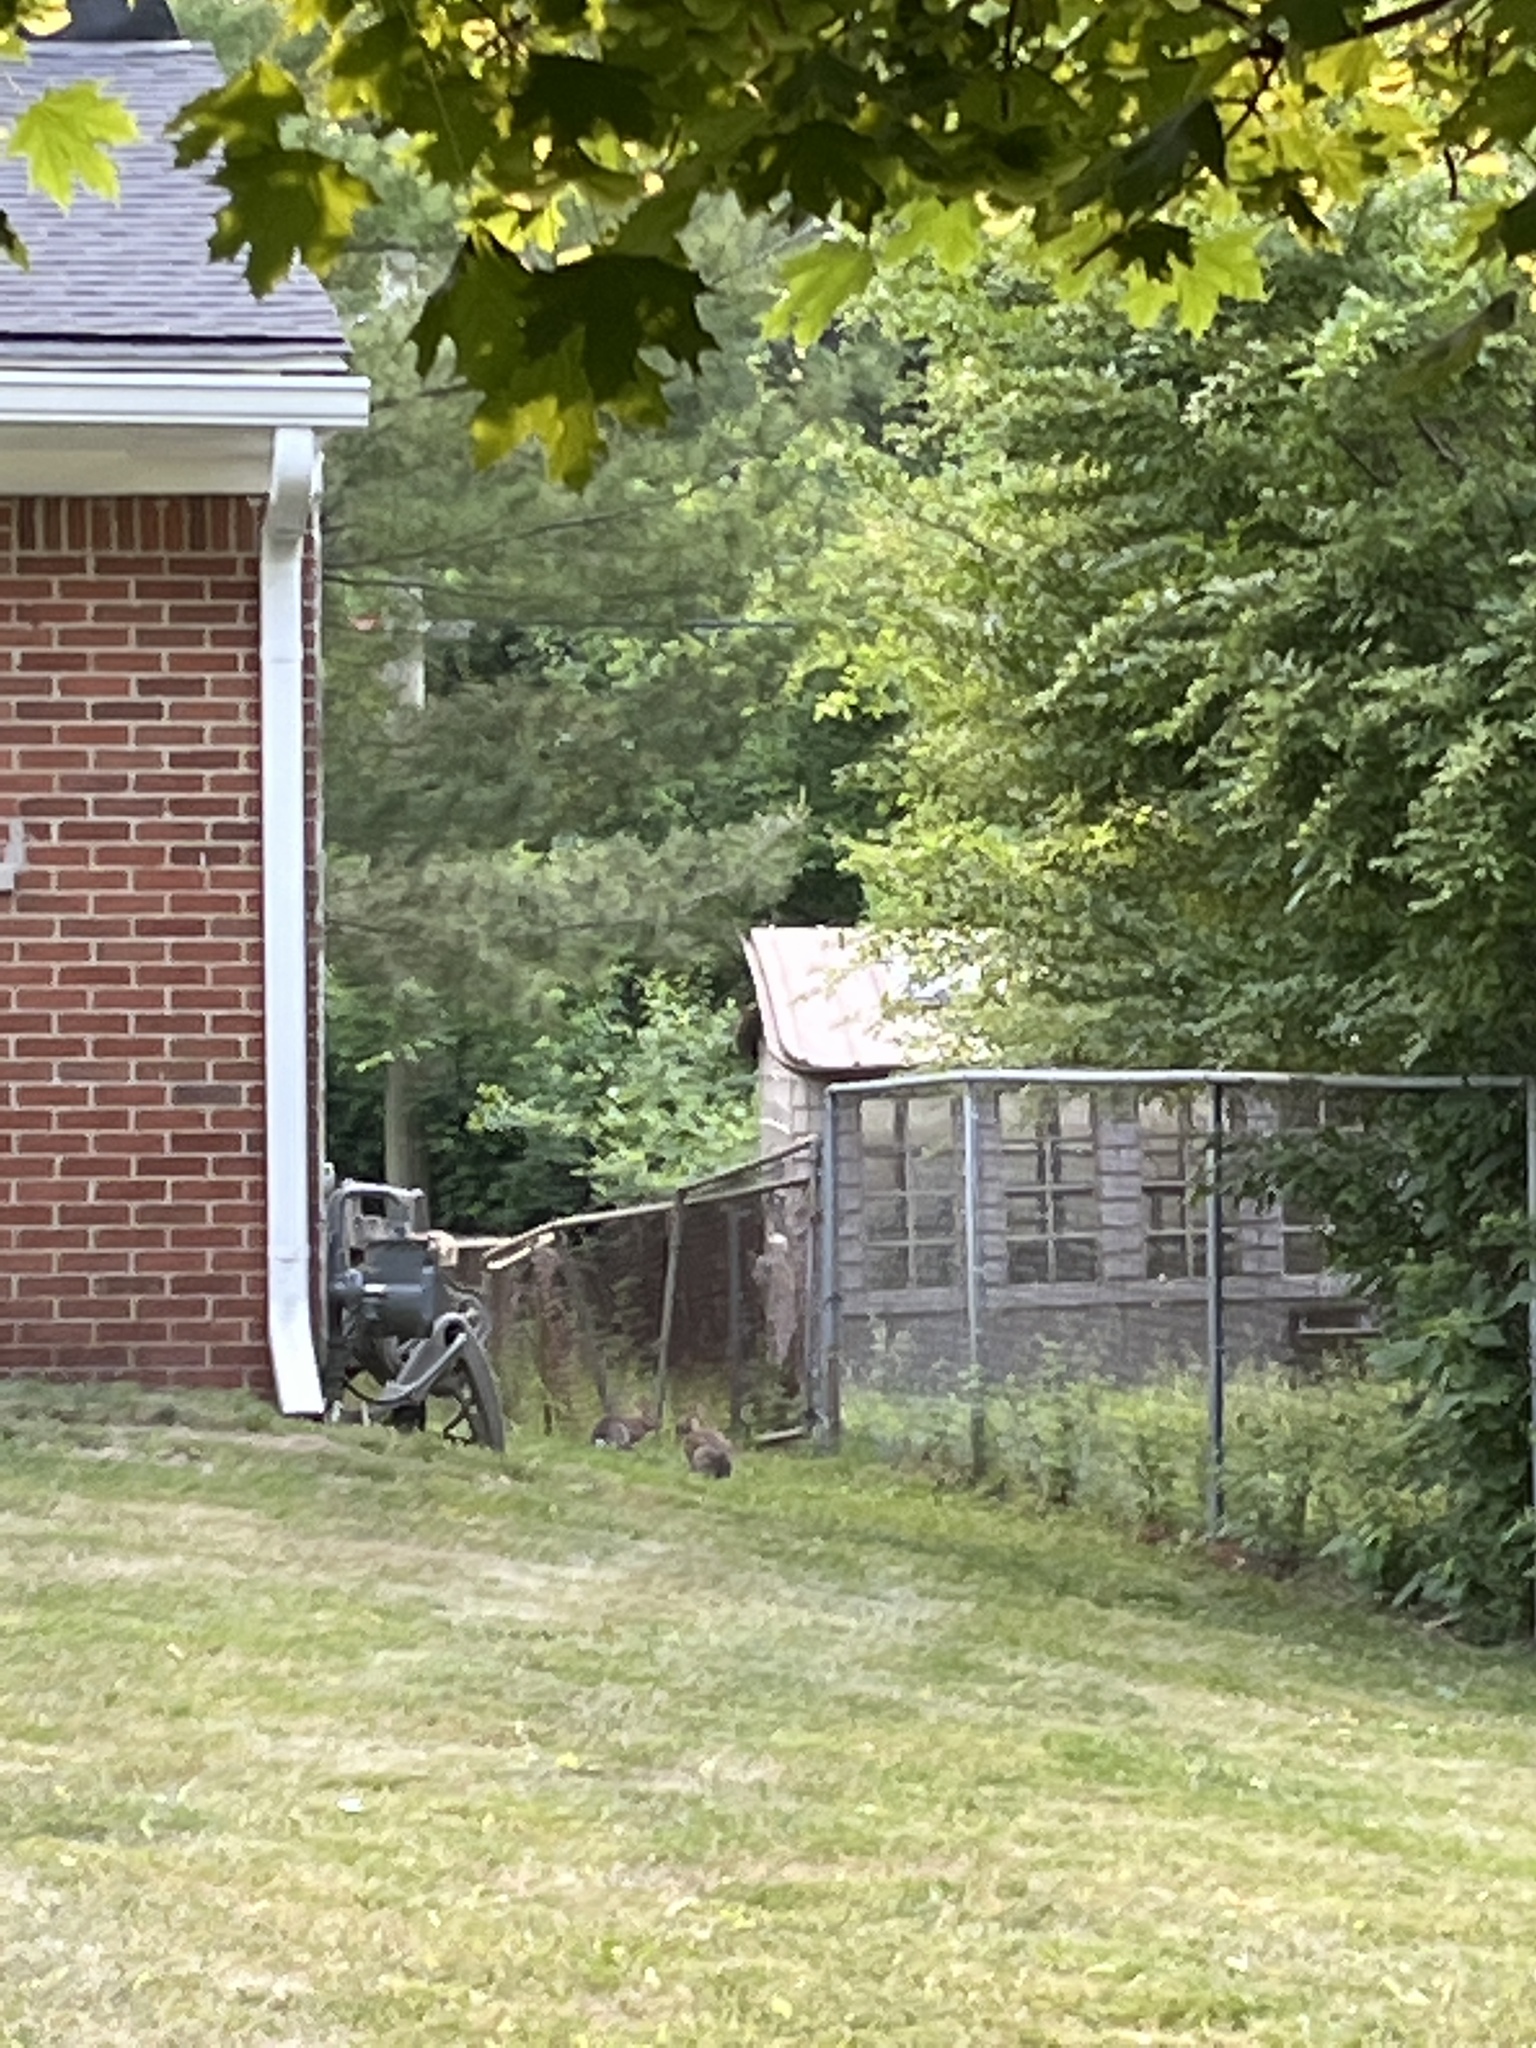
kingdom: Animalia
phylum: Chordata
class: Mammalia
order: Lagomorpha
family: Leporidae
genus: Sylvilagus
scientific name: Sylvilagus floridanus
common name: Eastern cottontail
